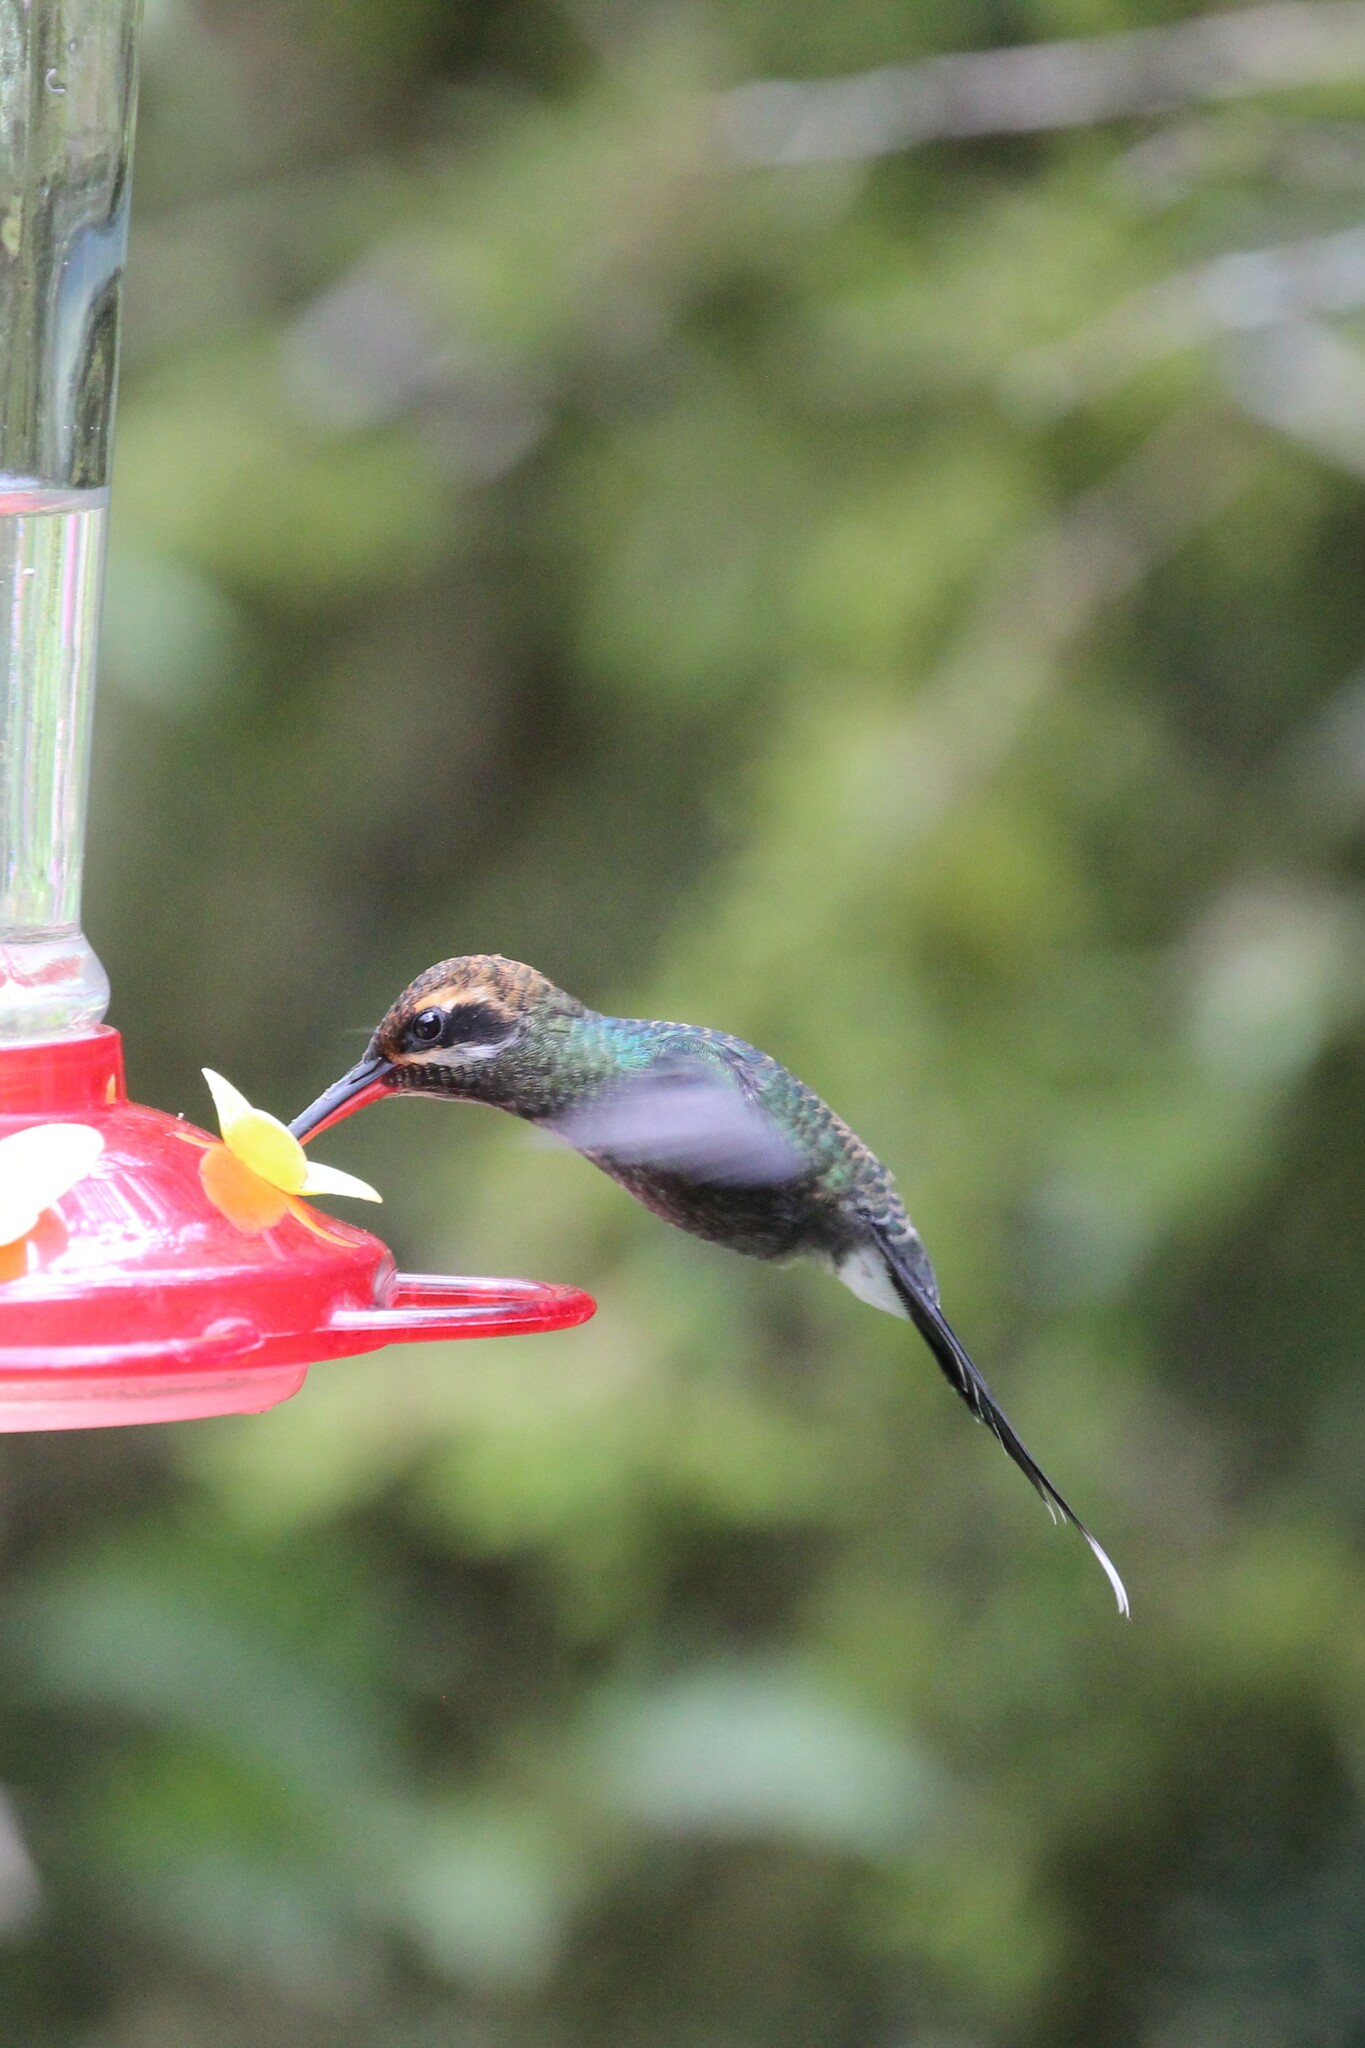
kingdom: Animalia
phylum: Chordata
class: Aves
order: Apodiformes
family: Trochilidae
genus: Phaethornis
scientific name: Phaethornis yaruqui
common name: White-whiskered hermit
